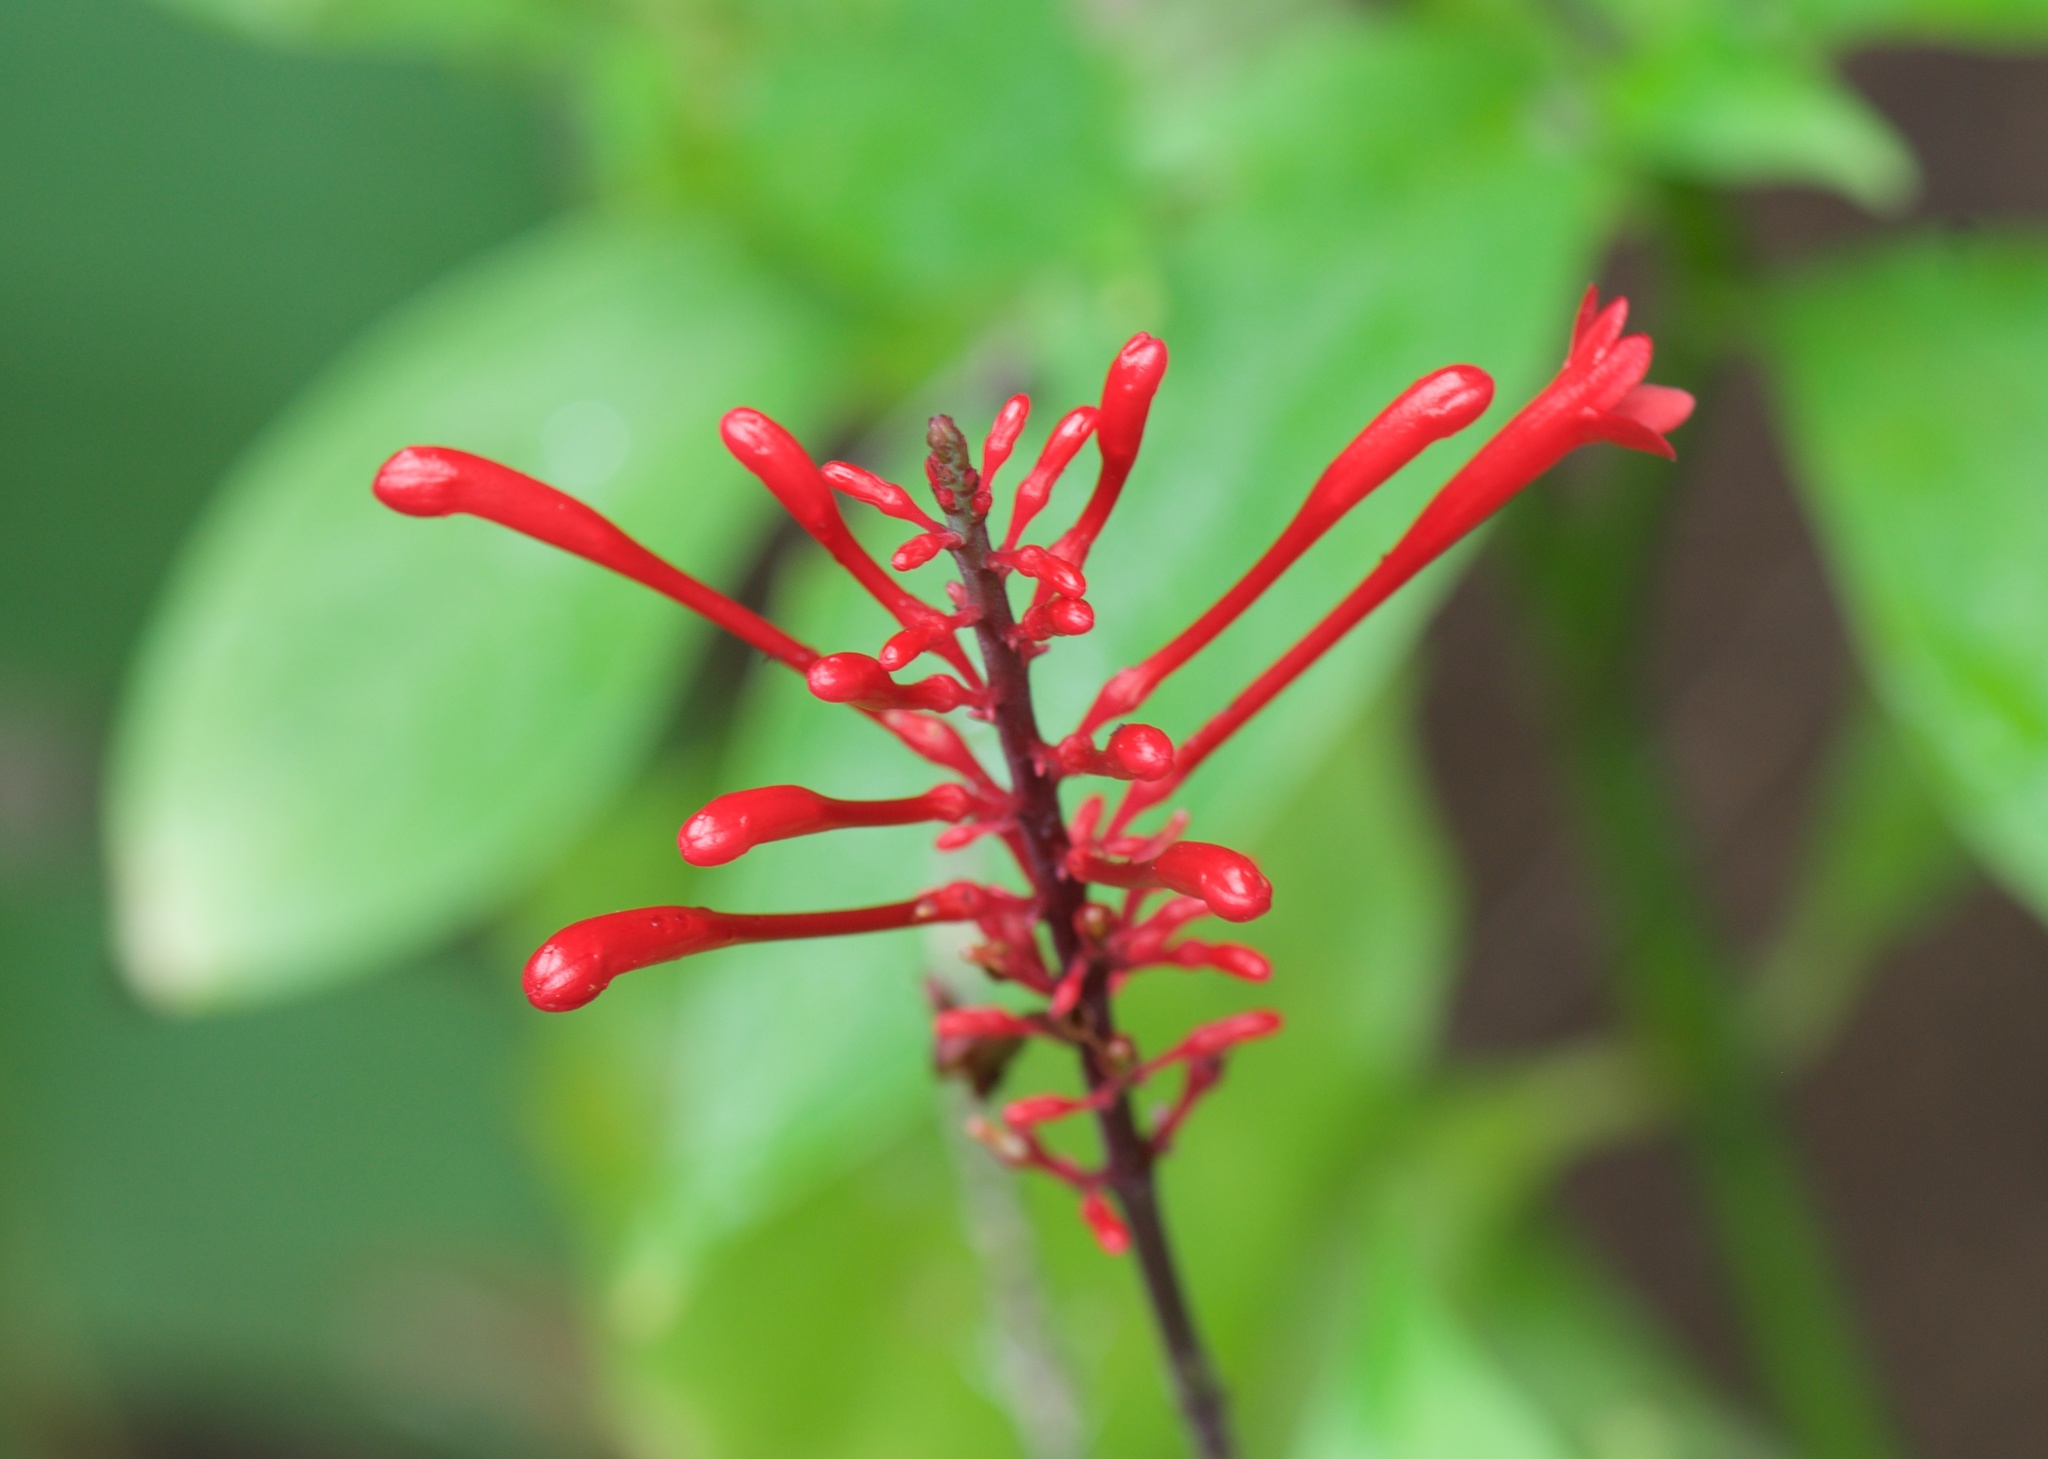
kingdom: Plantae
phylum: Tracheophyta
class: Magnoliopsida
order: Lamiales
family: Acanthaceae
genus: Odontonema
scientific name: Odontonema tubaeforme
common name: Firespike
